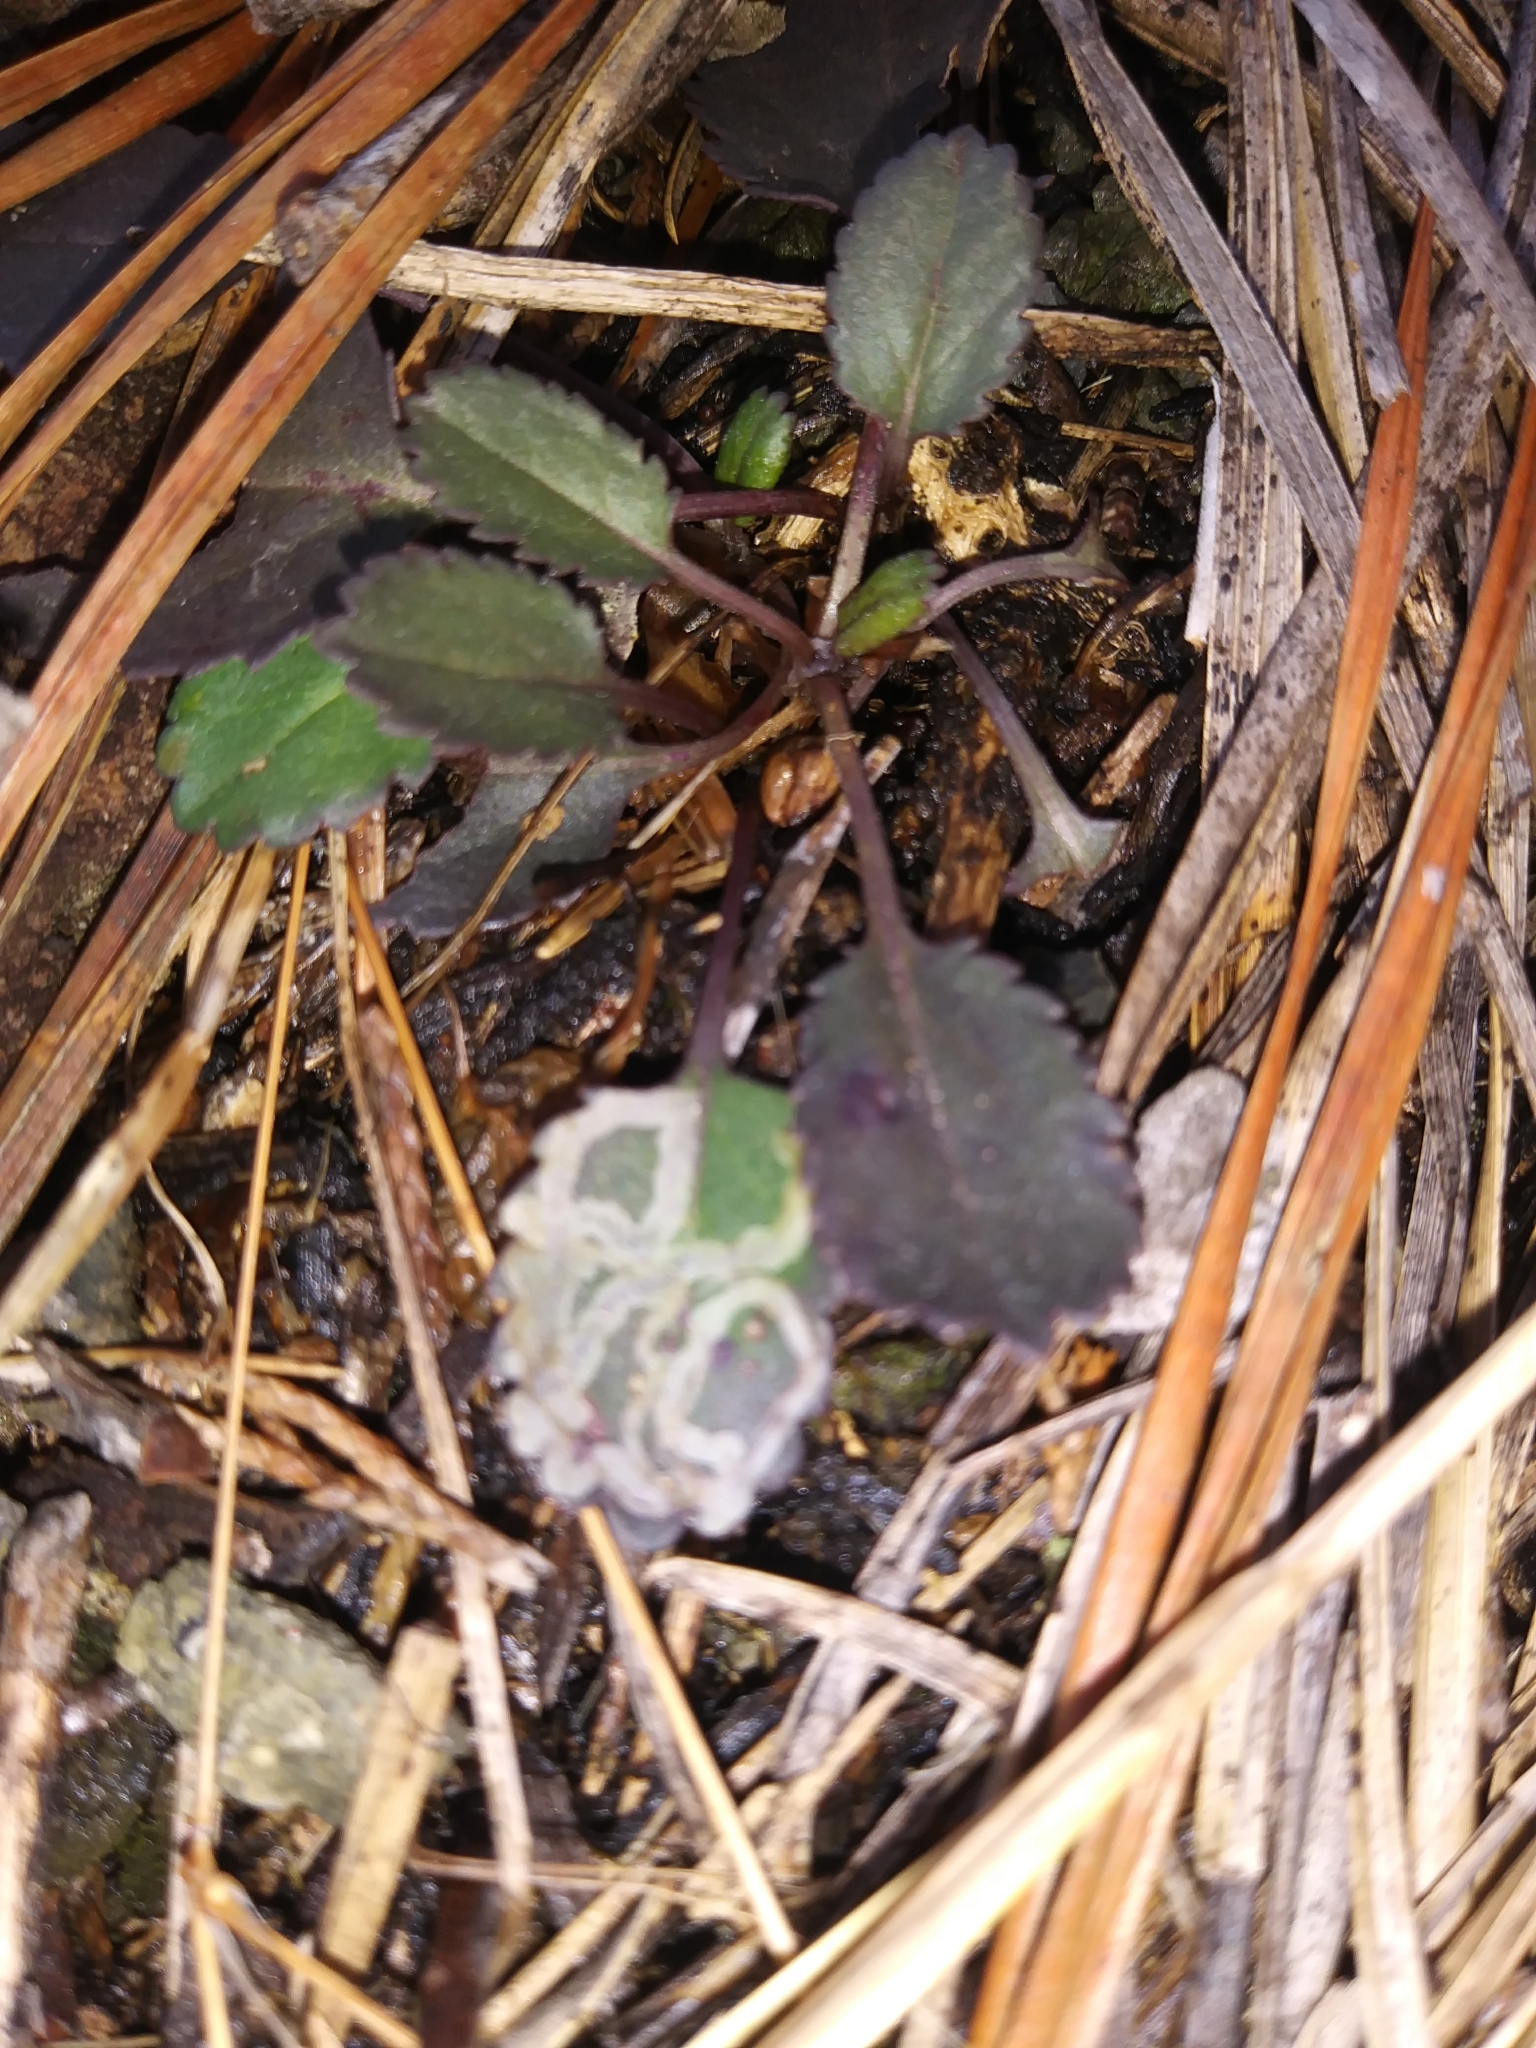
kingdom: Animalia
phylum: Arthropoda
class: Insecta
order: Lepidoptera
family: Gracillariidae
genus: Phyllocnistis
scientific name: Phyllocnistis insignis
